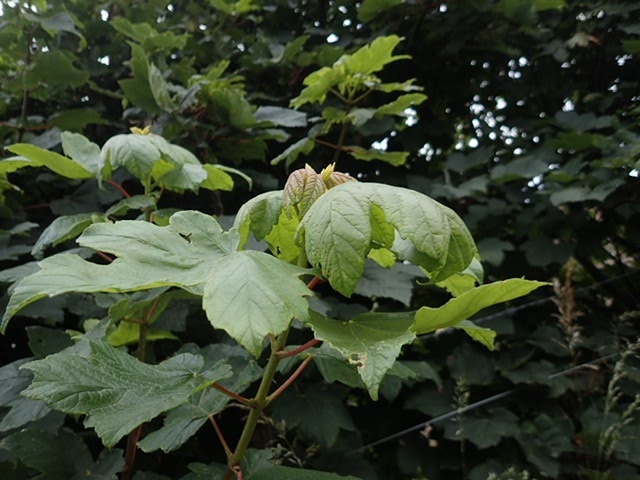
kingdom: Plantae
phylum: Tracheophyta
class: Magnoliopsida
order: Sapindales
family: Sapindaceae
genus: Acer
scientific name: Acer pseudoplatanus
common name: Sycamore
